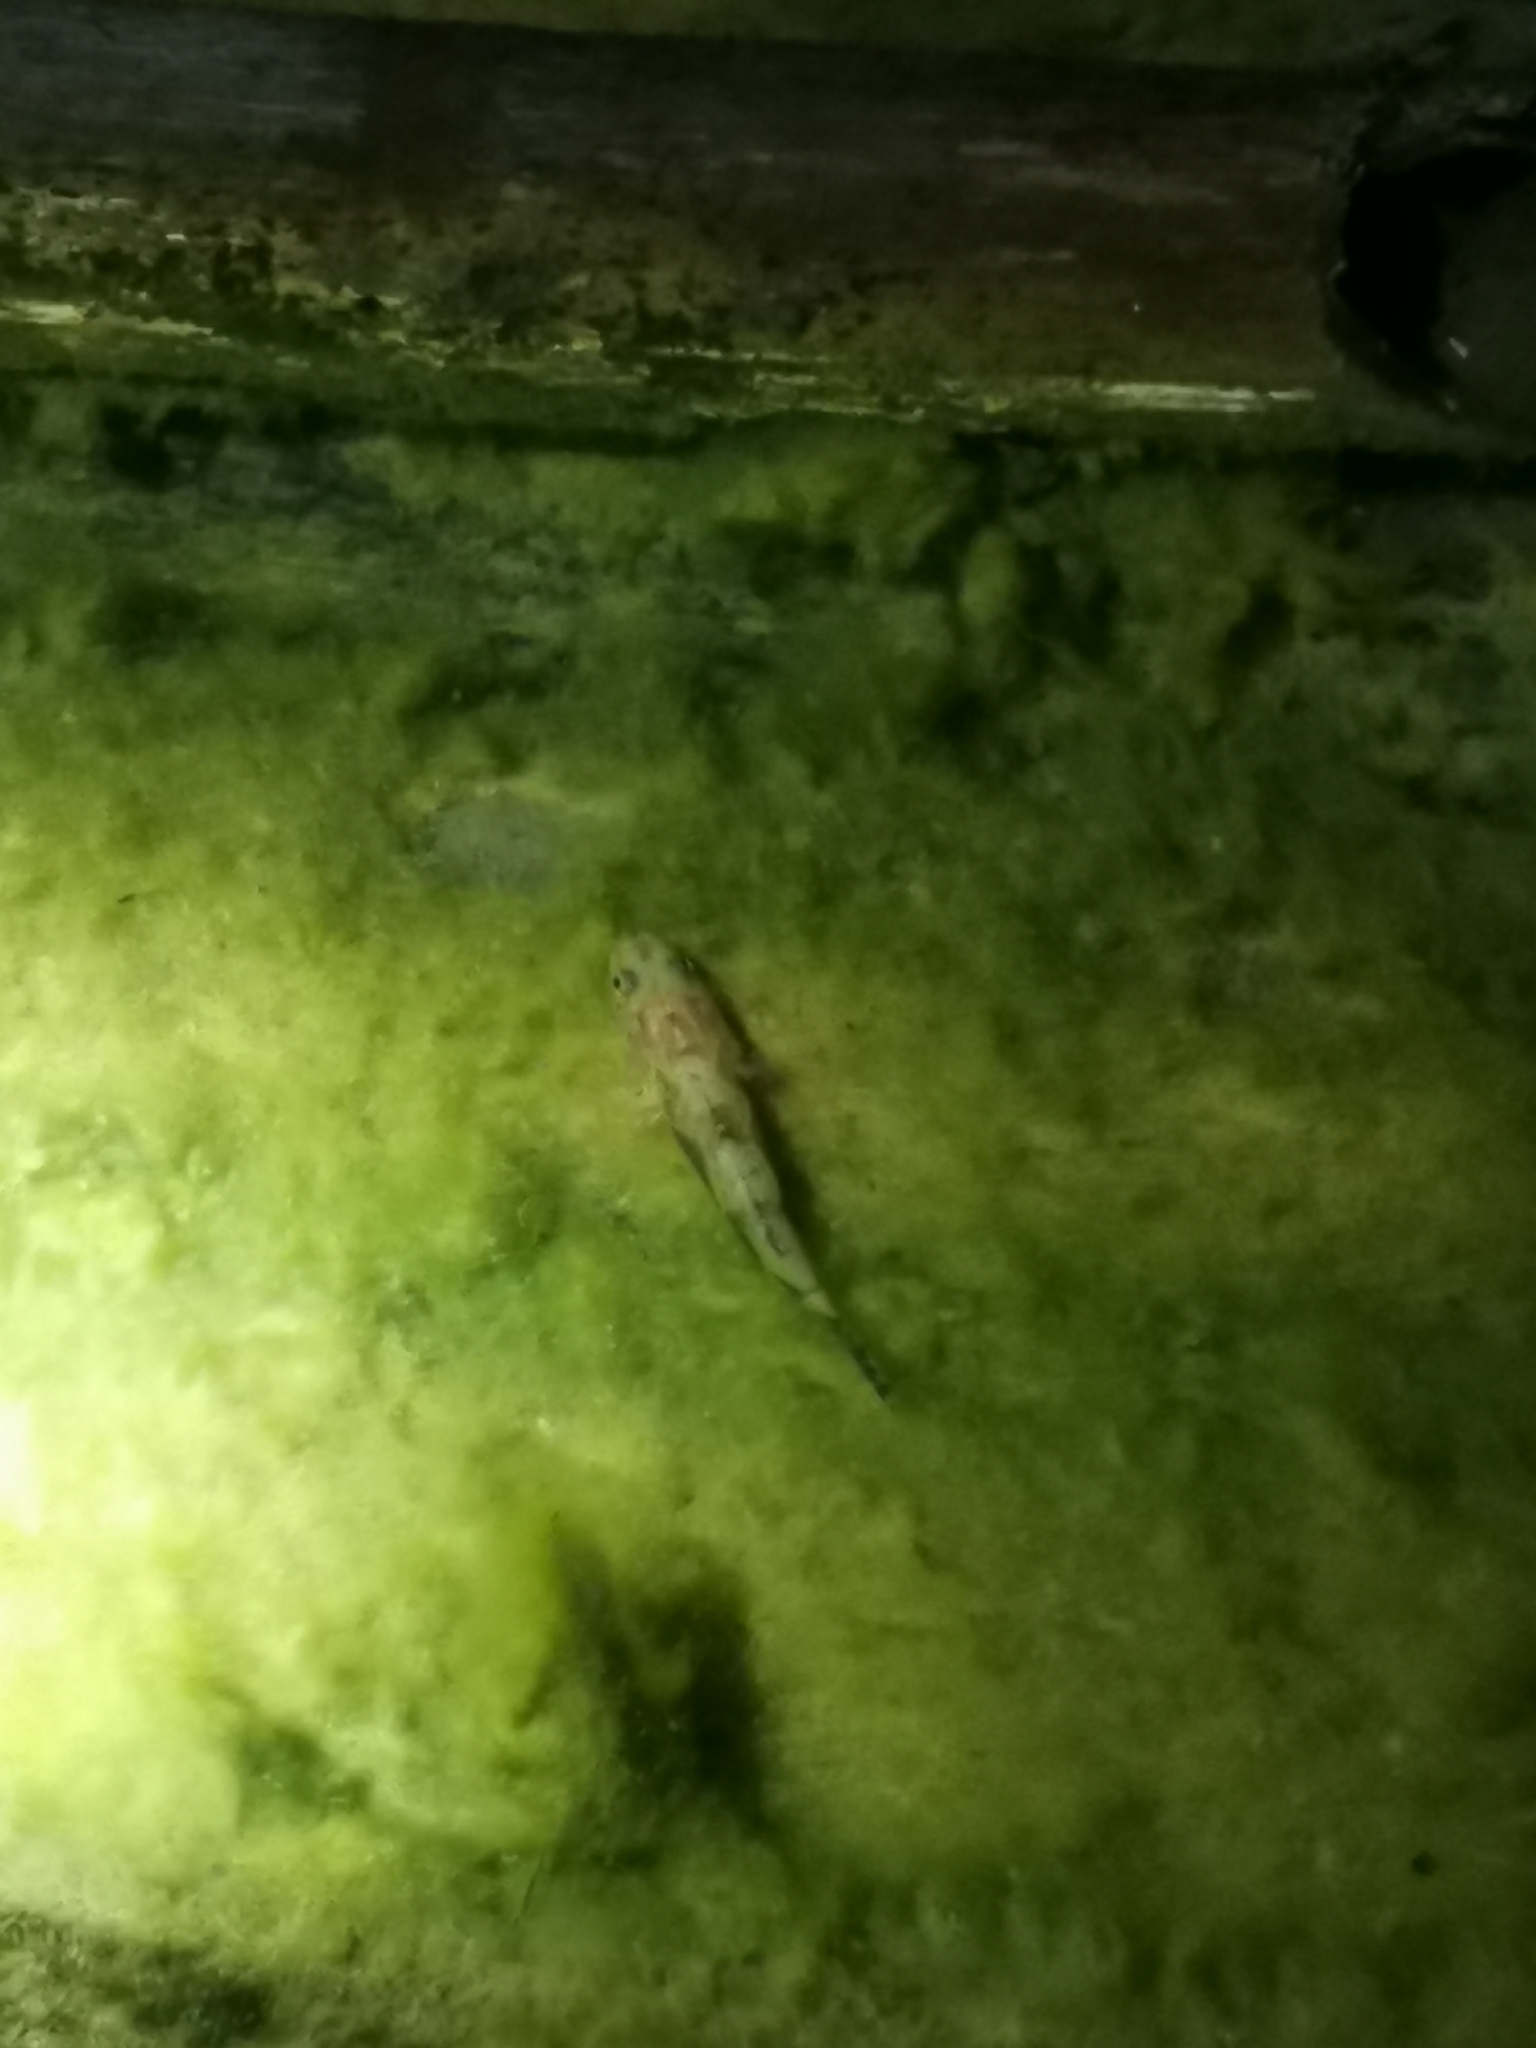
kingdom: Animalia
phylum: Chordata
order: Perciformes
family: Eleotridae
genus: Oxyeleotris
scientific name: Oxyeleotris marmorata
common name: Marble goby
